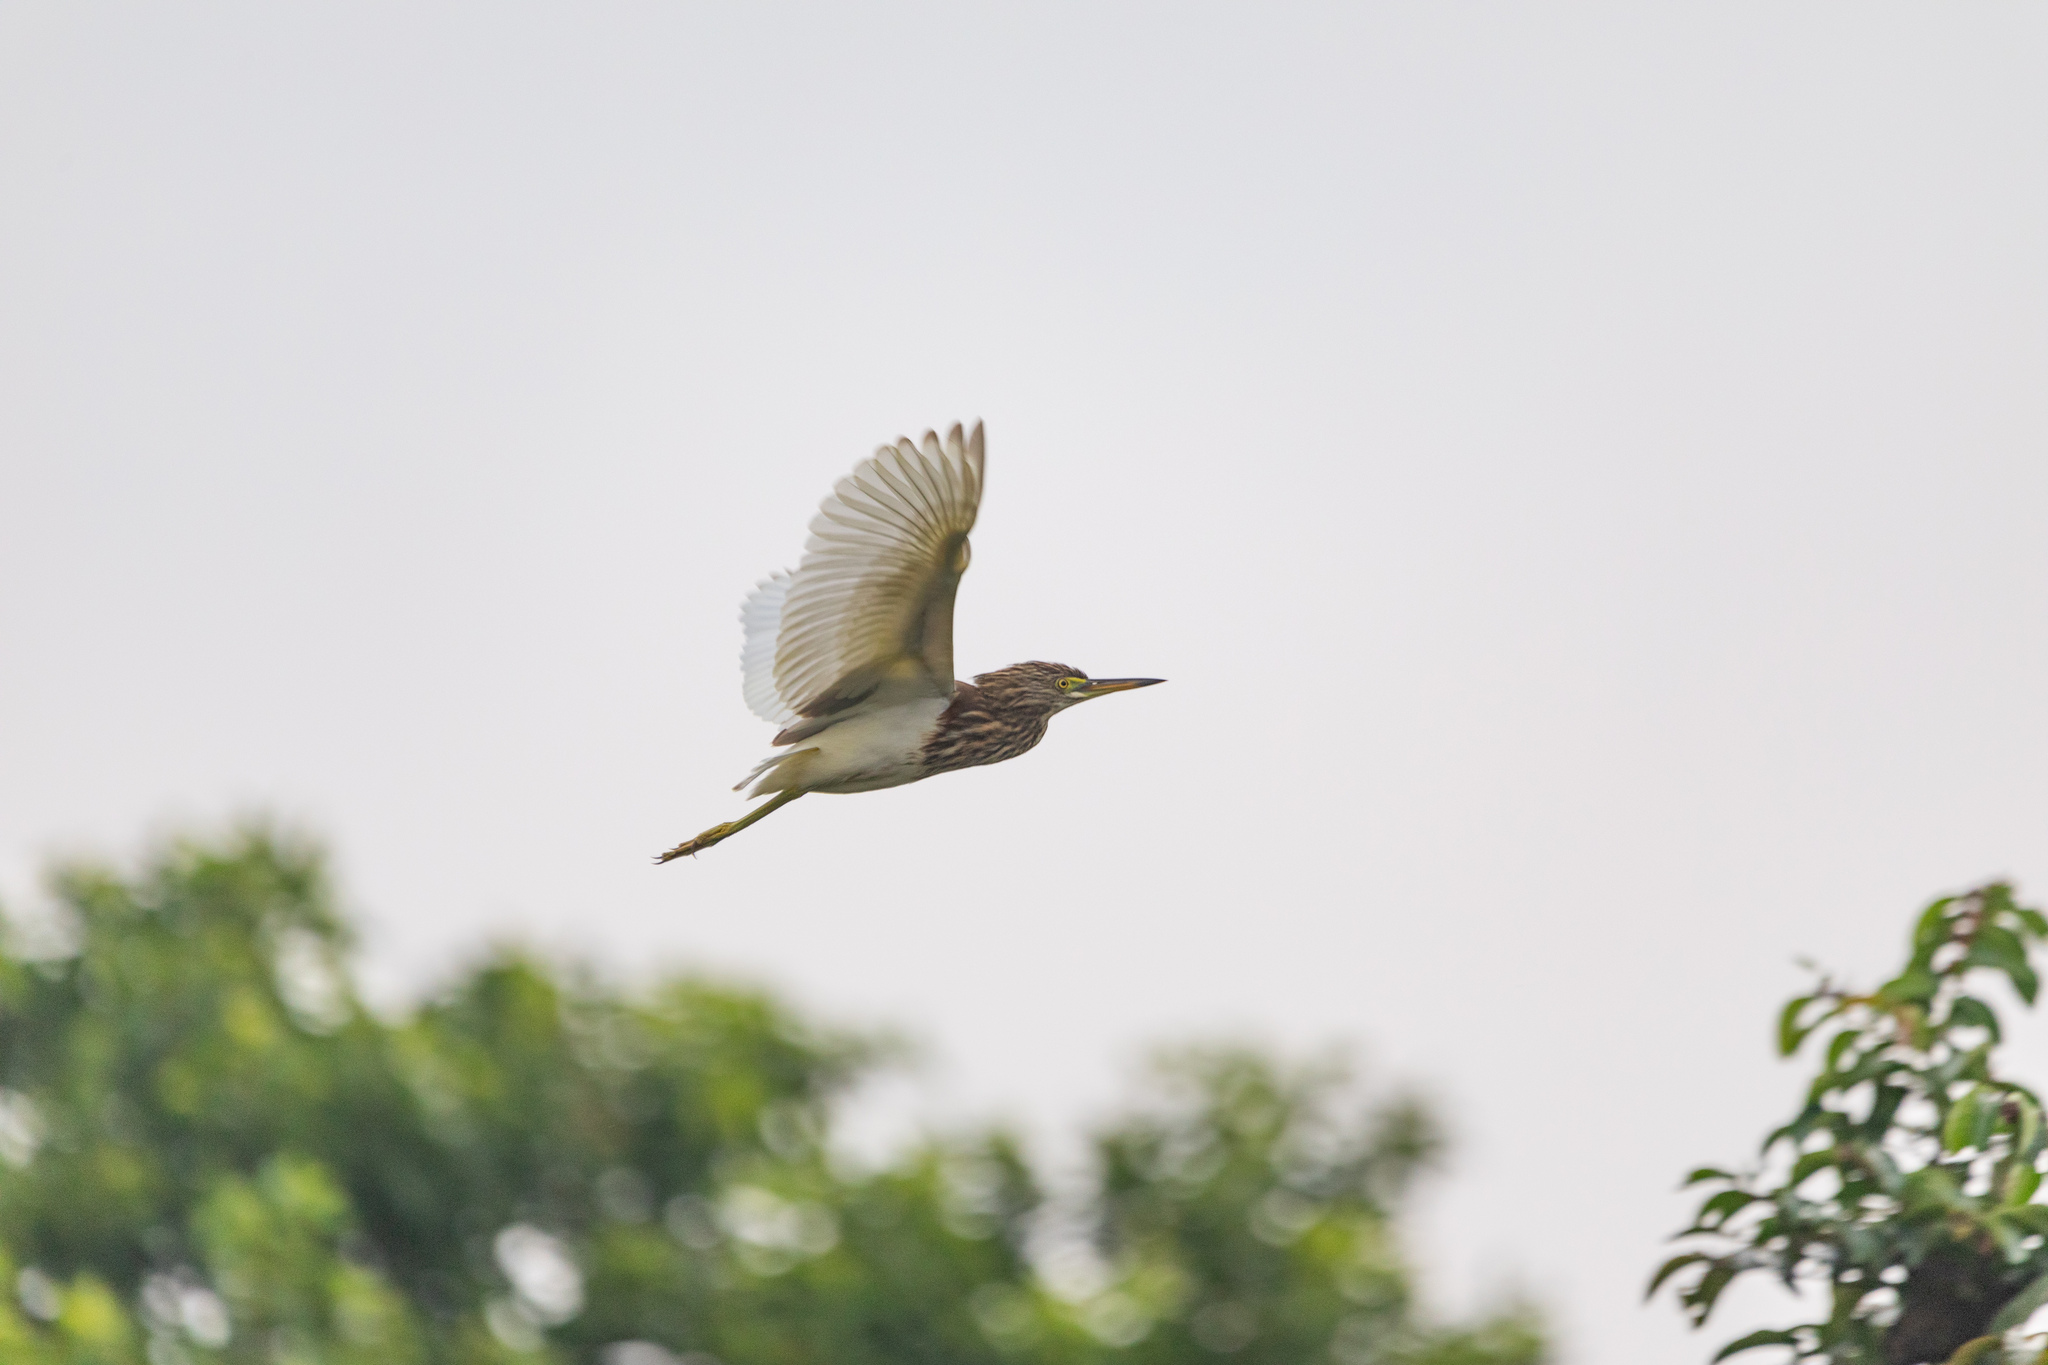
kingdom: Animalia
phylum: Chordata
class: Aves
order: Pelecaniformes
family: Ardeidae
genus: Ardeola
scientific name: Ardeola bacchus
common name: Chinese pond heron
